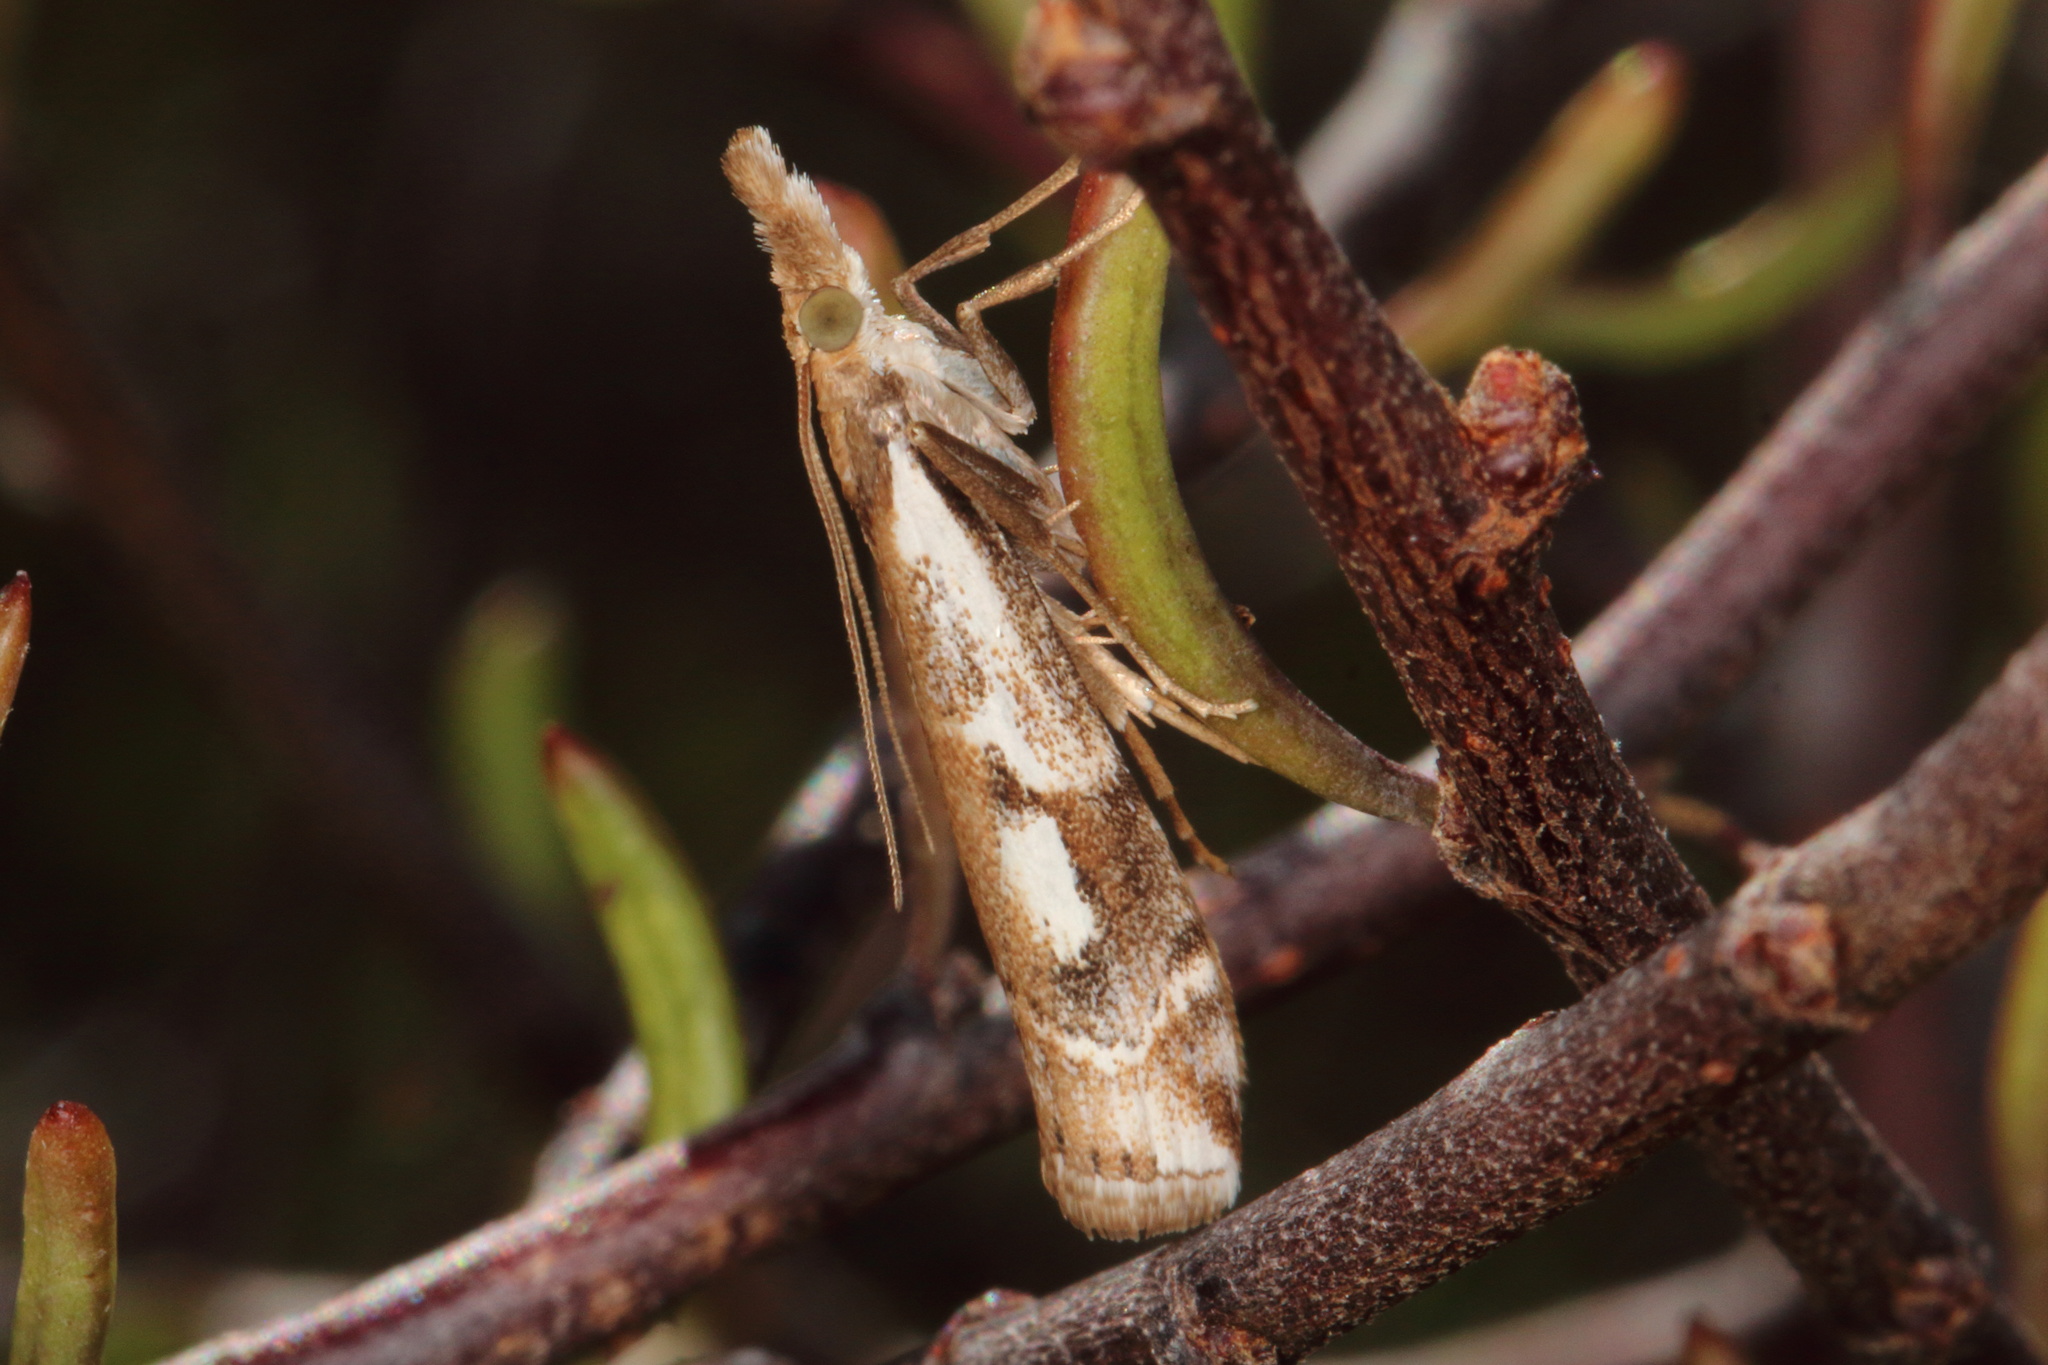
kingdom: Animalia
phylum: Arthropoda
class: Insecta
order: Lepidoptera
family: Crambidae
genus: Orocrambus
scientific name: Orocrambus vulgaris
